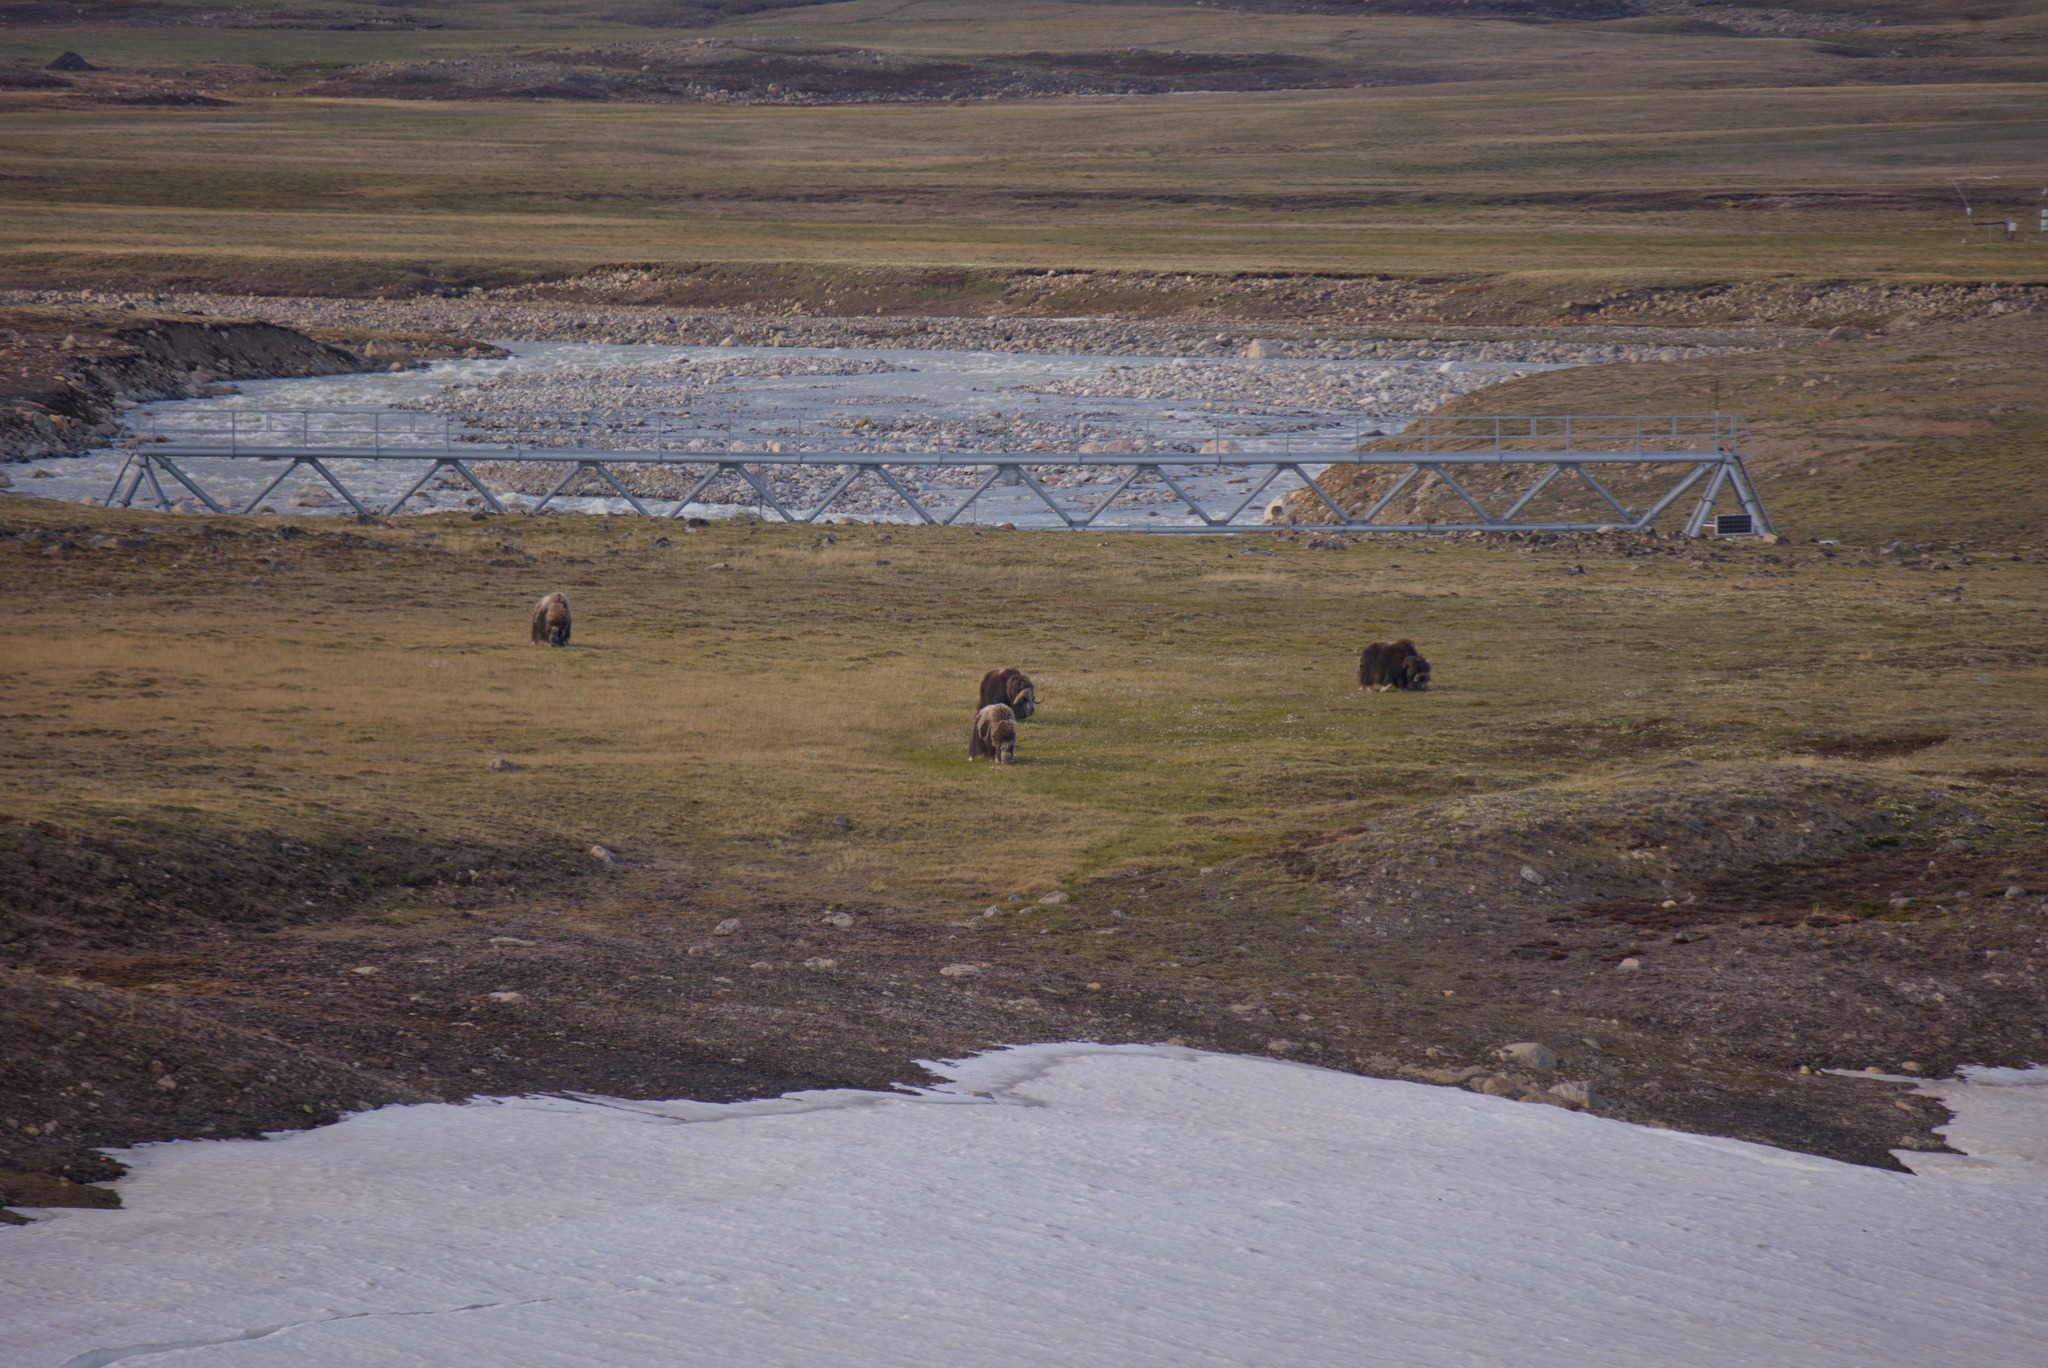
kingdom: Animalia
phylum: Chordata
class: Mammalia
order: Artiodactyla
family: Bovidae
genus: Ovibos
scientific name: Ovibos moschatus
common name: Muskox
